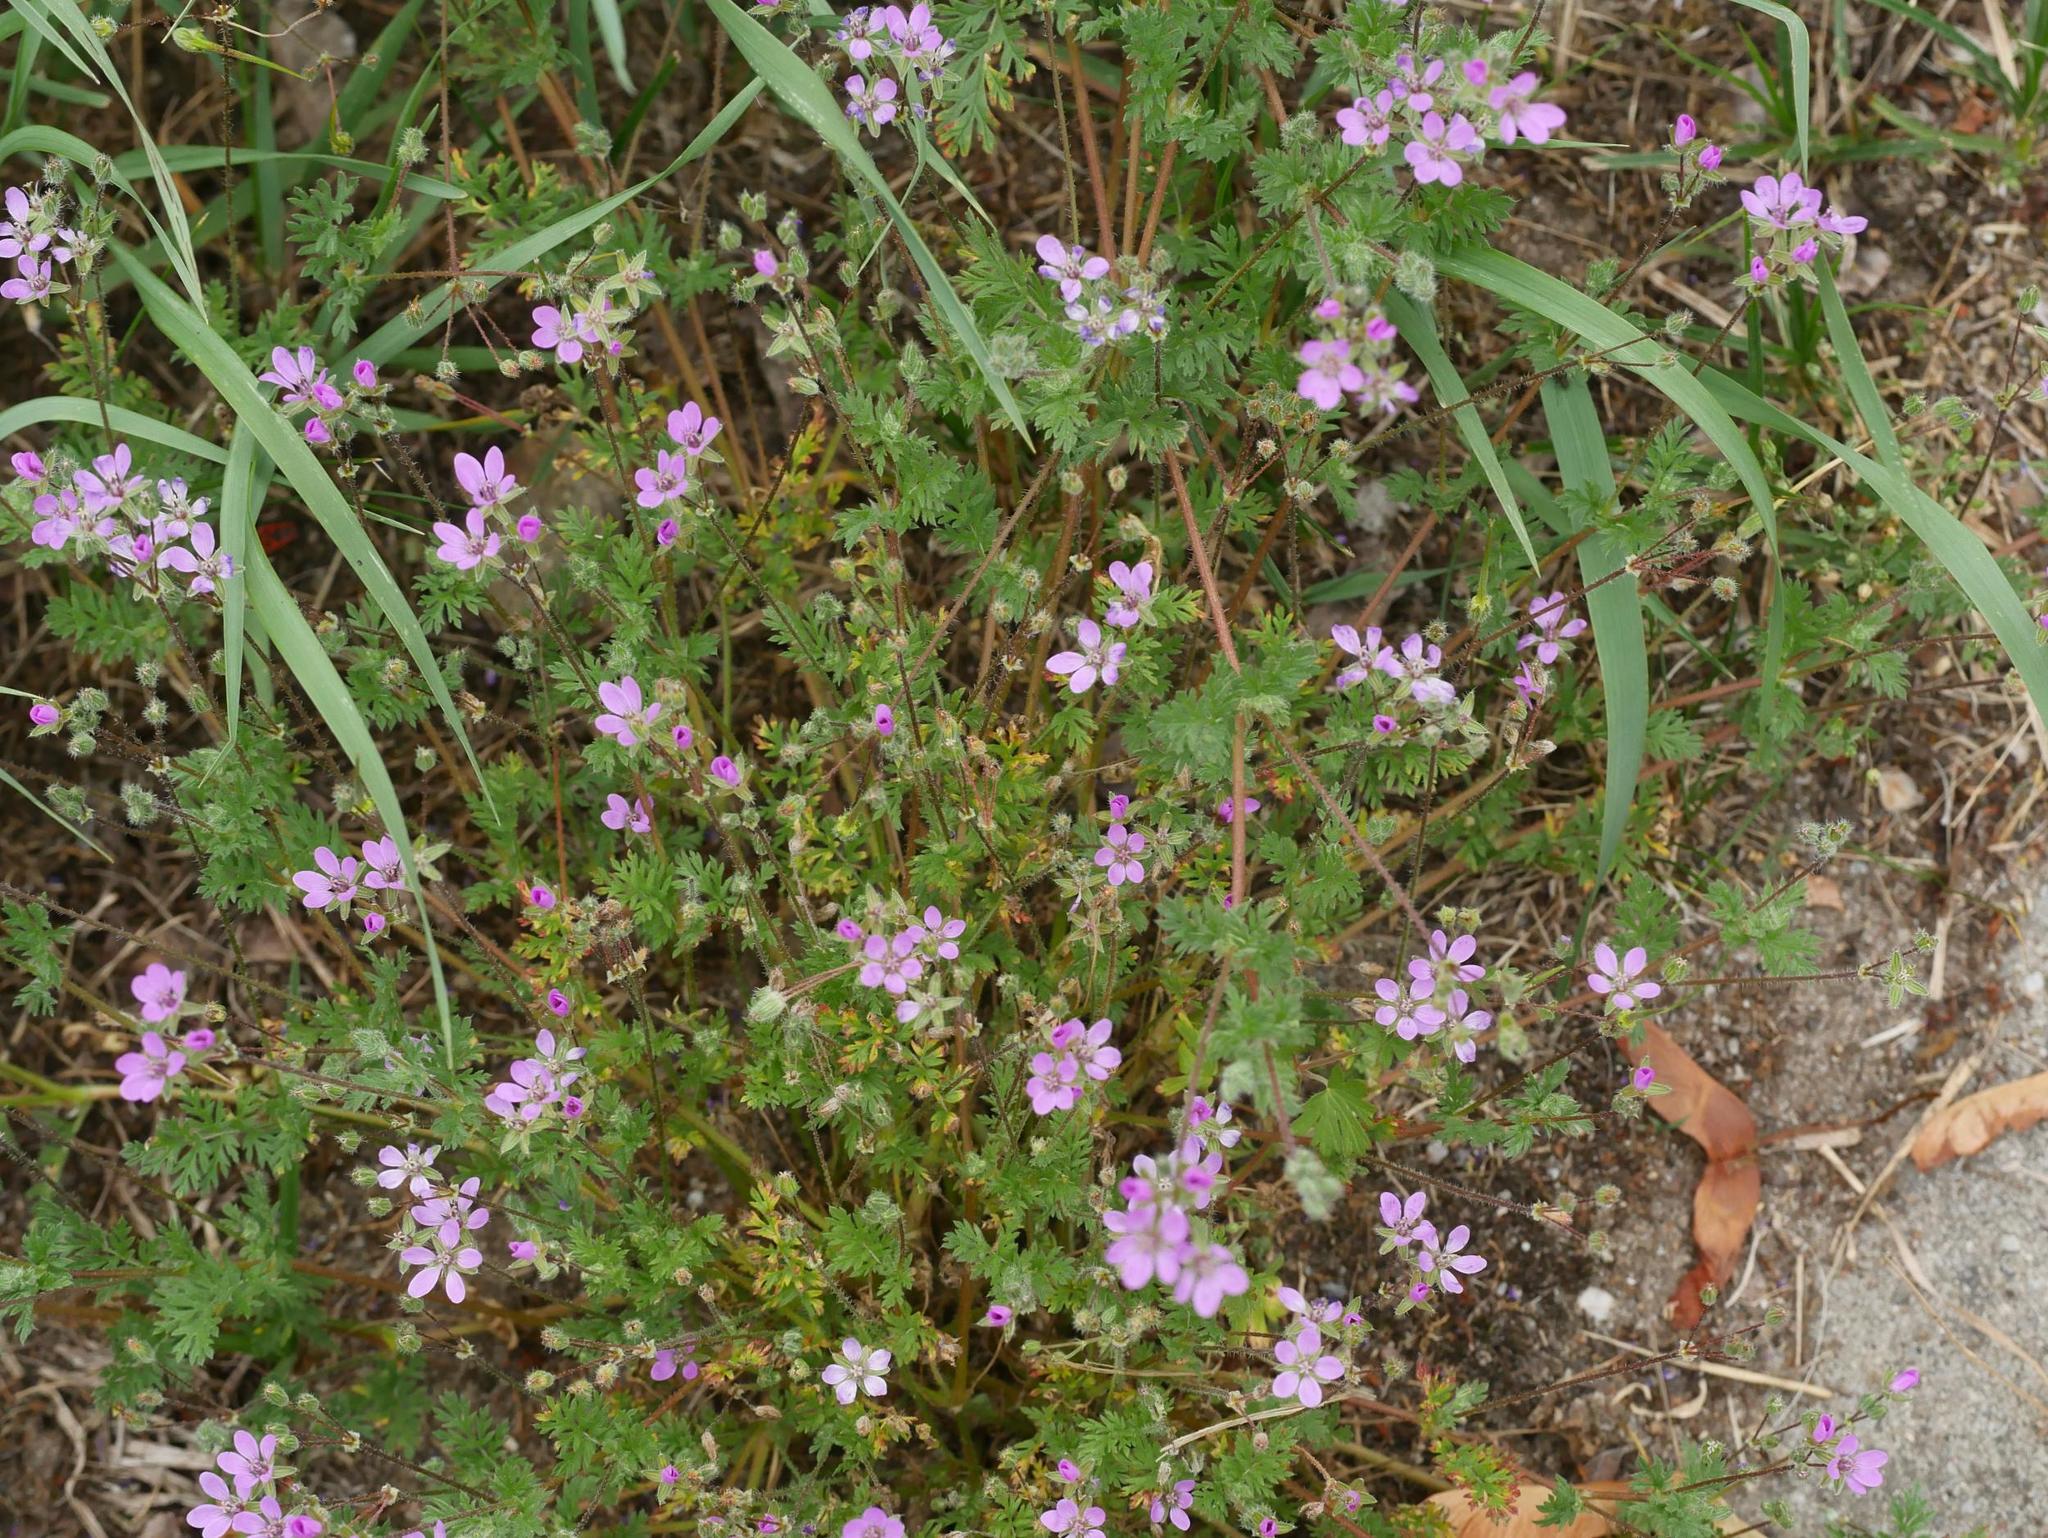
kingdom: Plantae
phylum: Tracheophyta
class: Magnoliopsida
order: Geraniales
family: Geraniaceae
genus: Erodium
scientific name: Erodium cicutarium
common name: Common stork's-bill
